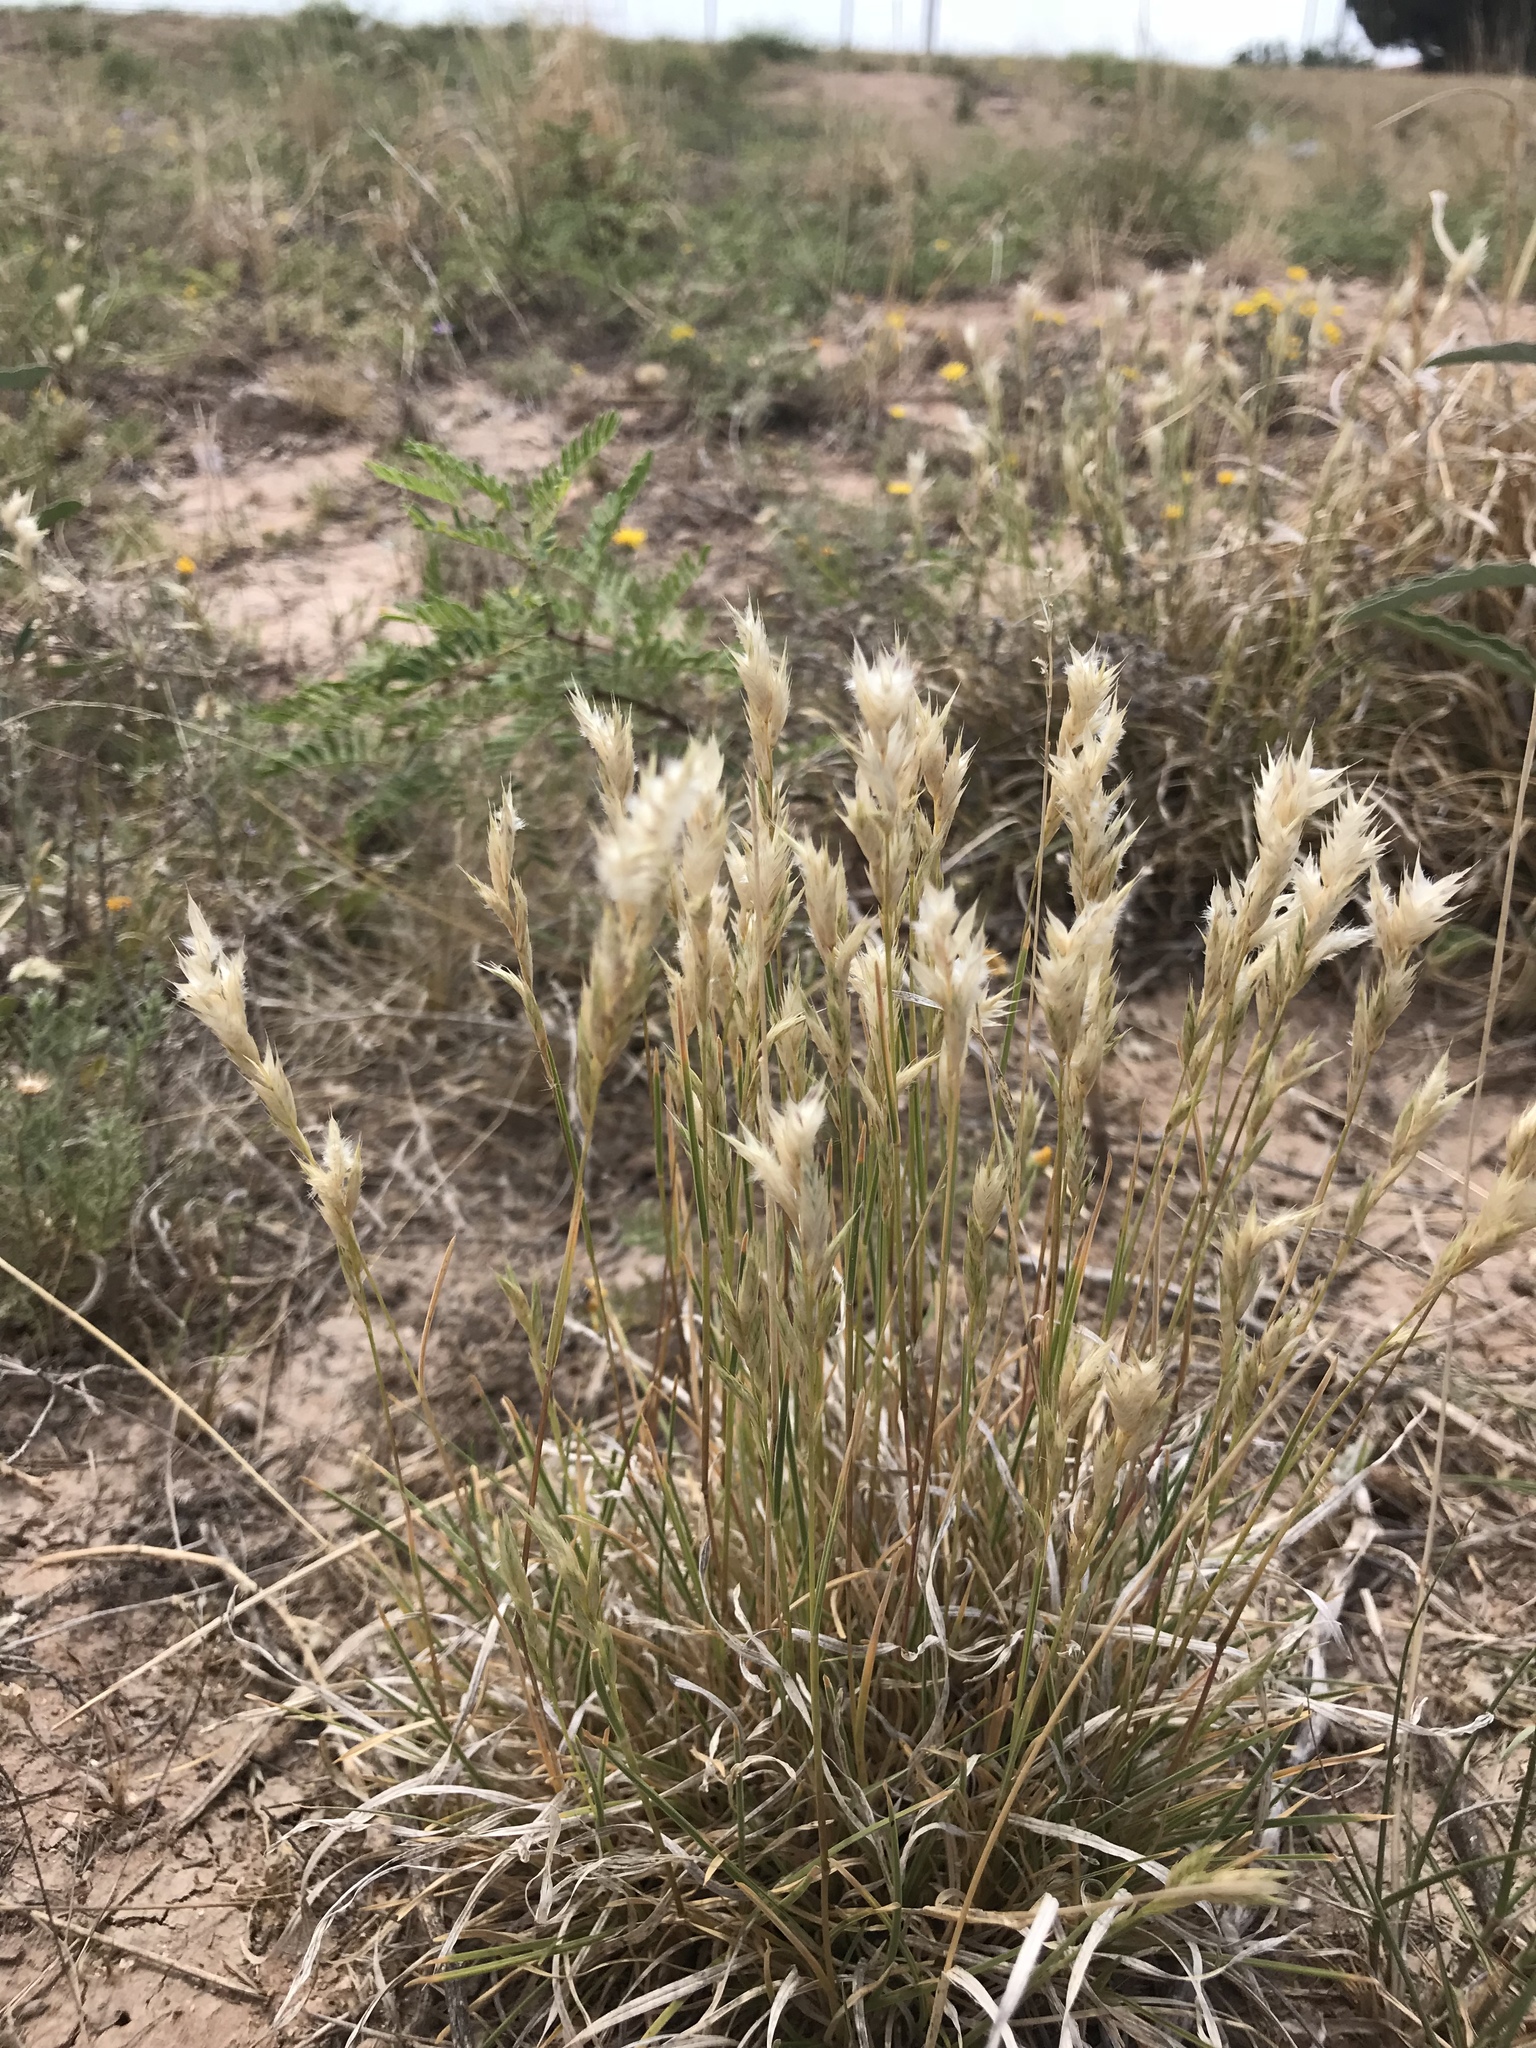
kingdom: Plantae
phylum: Tracheophyta
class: Liliopsida
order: Poales
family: Poaceae
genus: Erioneuron
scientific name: Erioneuron pilosum
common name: Hairy woolly grass
